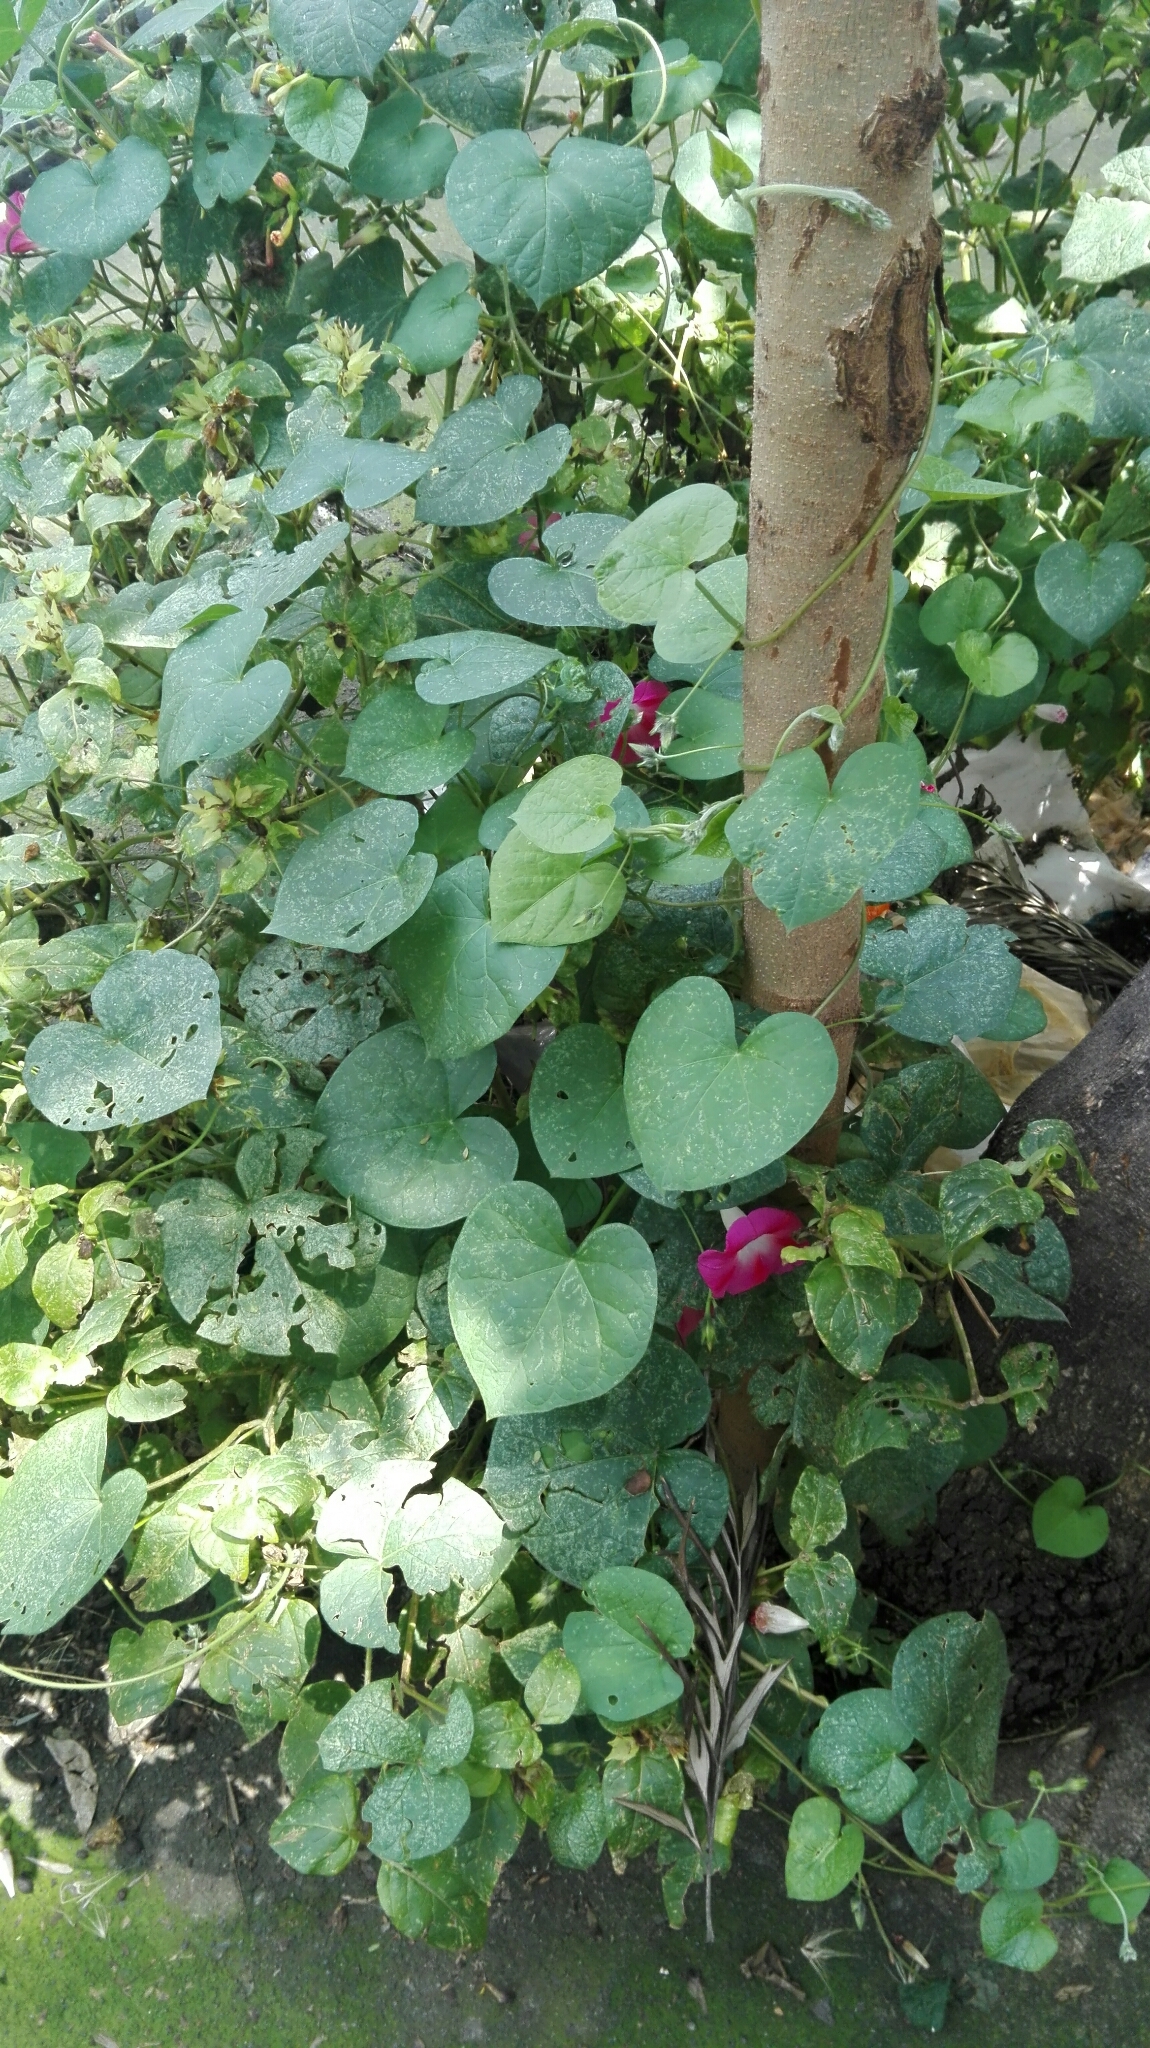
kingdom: Plantae
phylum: Tracheophyta
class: Magnoliopsida
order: Solanales
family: Convolvulaceae
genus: Ipomoea
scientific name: Ipomoea purpurea
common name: Common morning-glory
